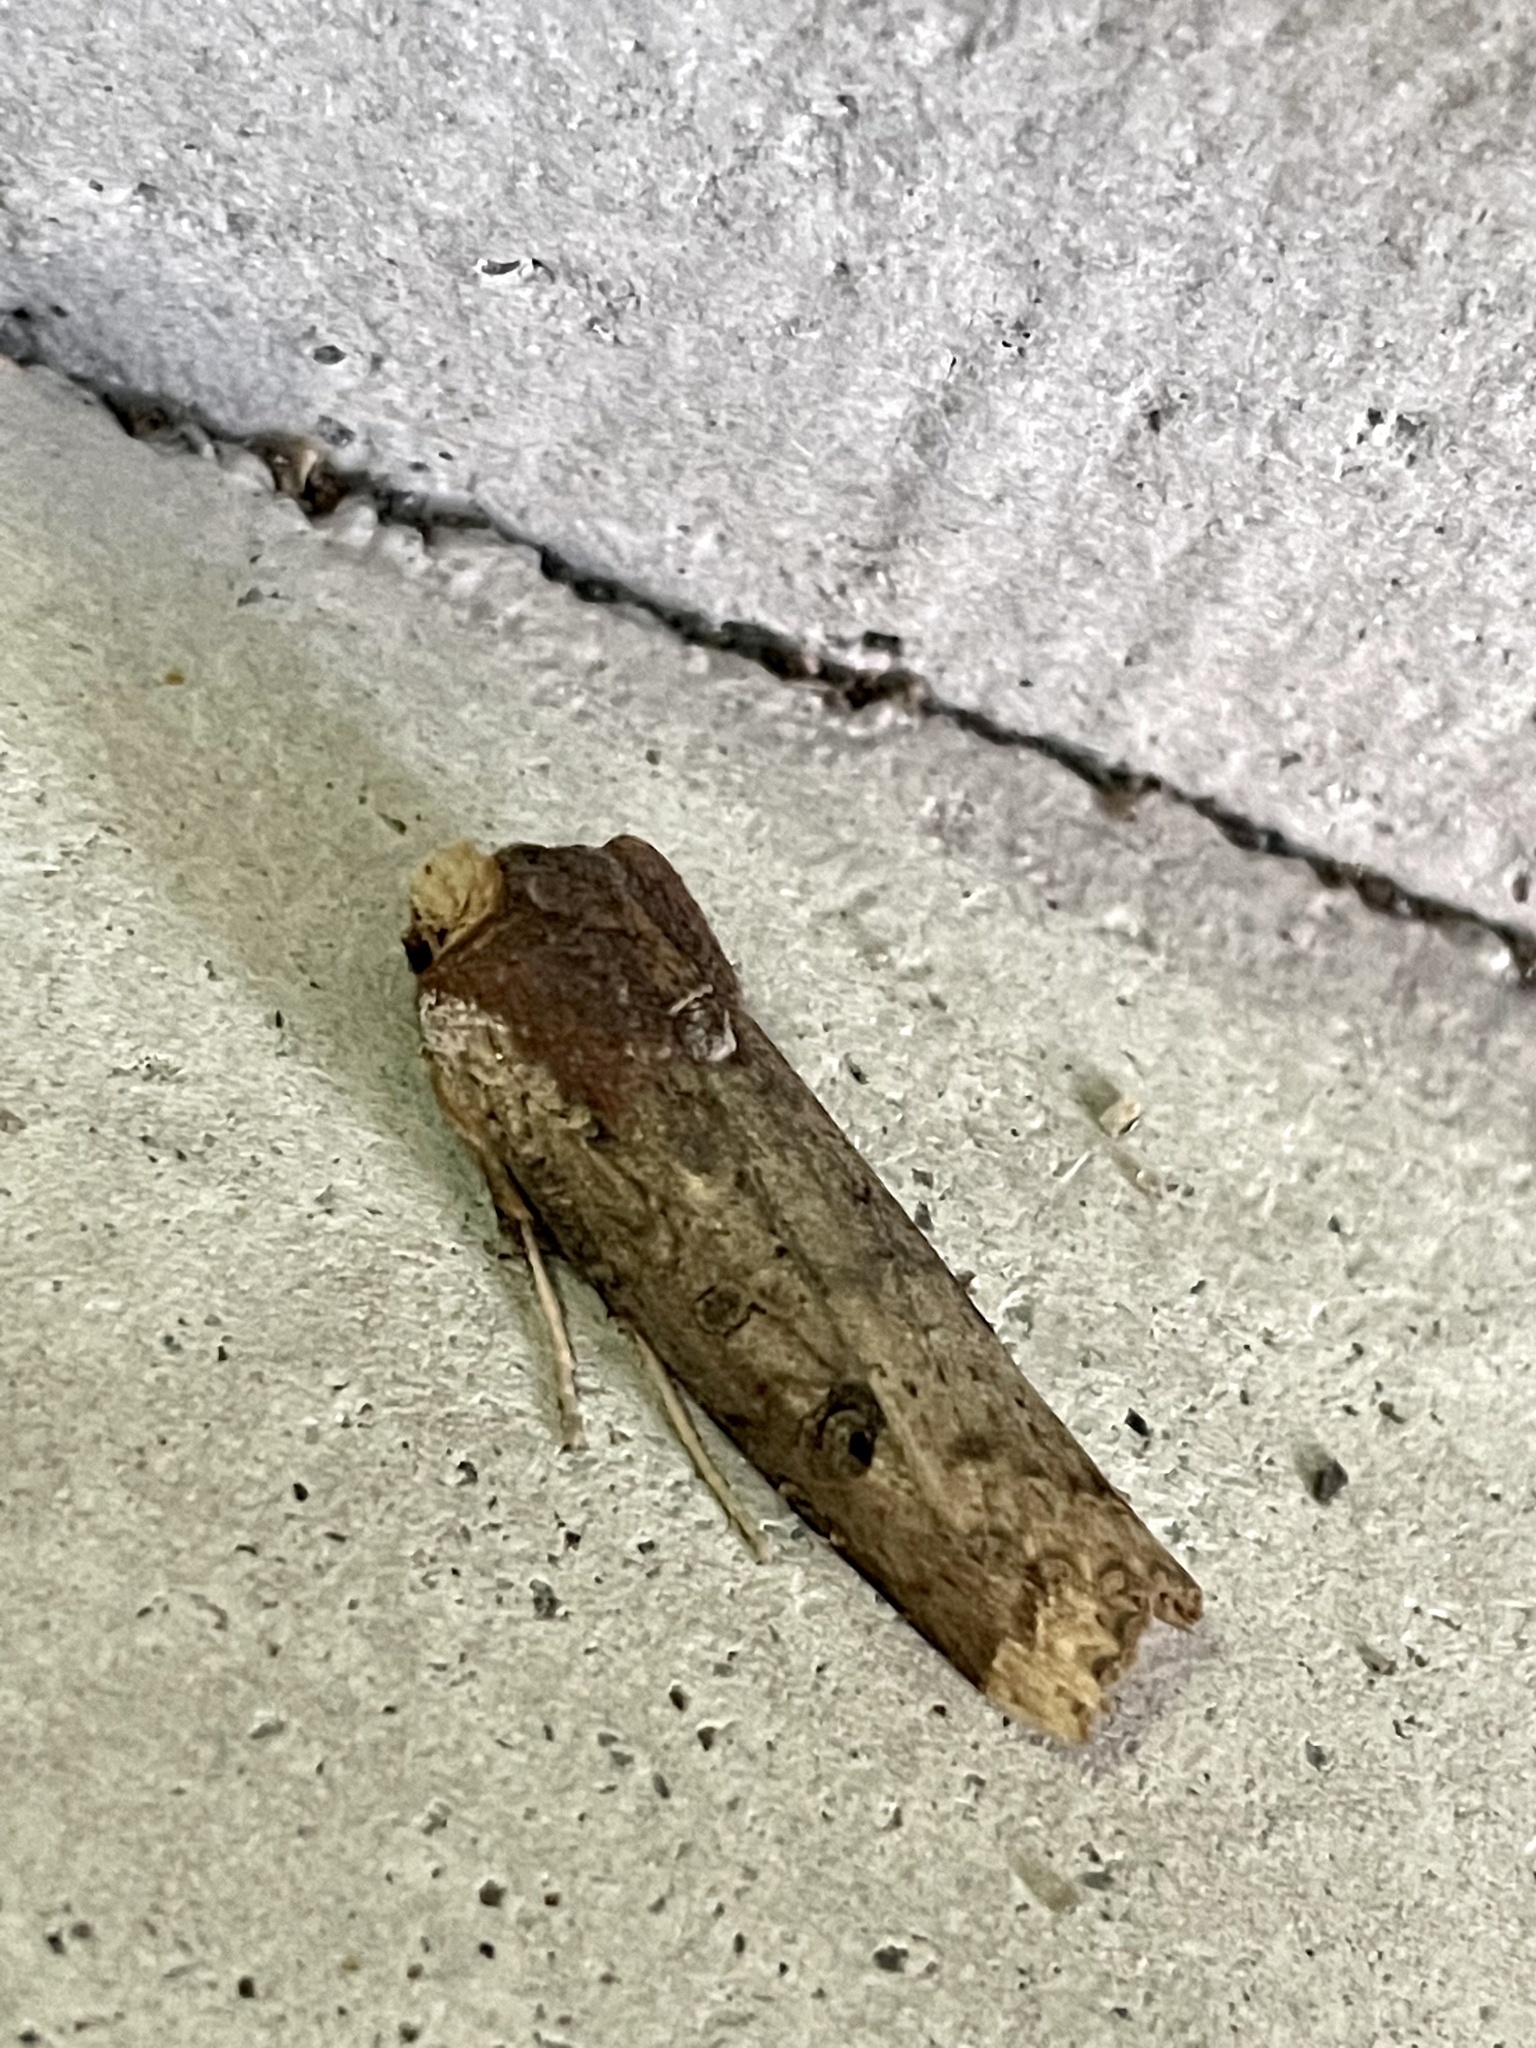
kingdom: Animalia
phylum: Arthropoda
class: Insecta
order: Lepidoptera
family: Noctuidae
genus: Xylena
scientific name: Xylena formosa
